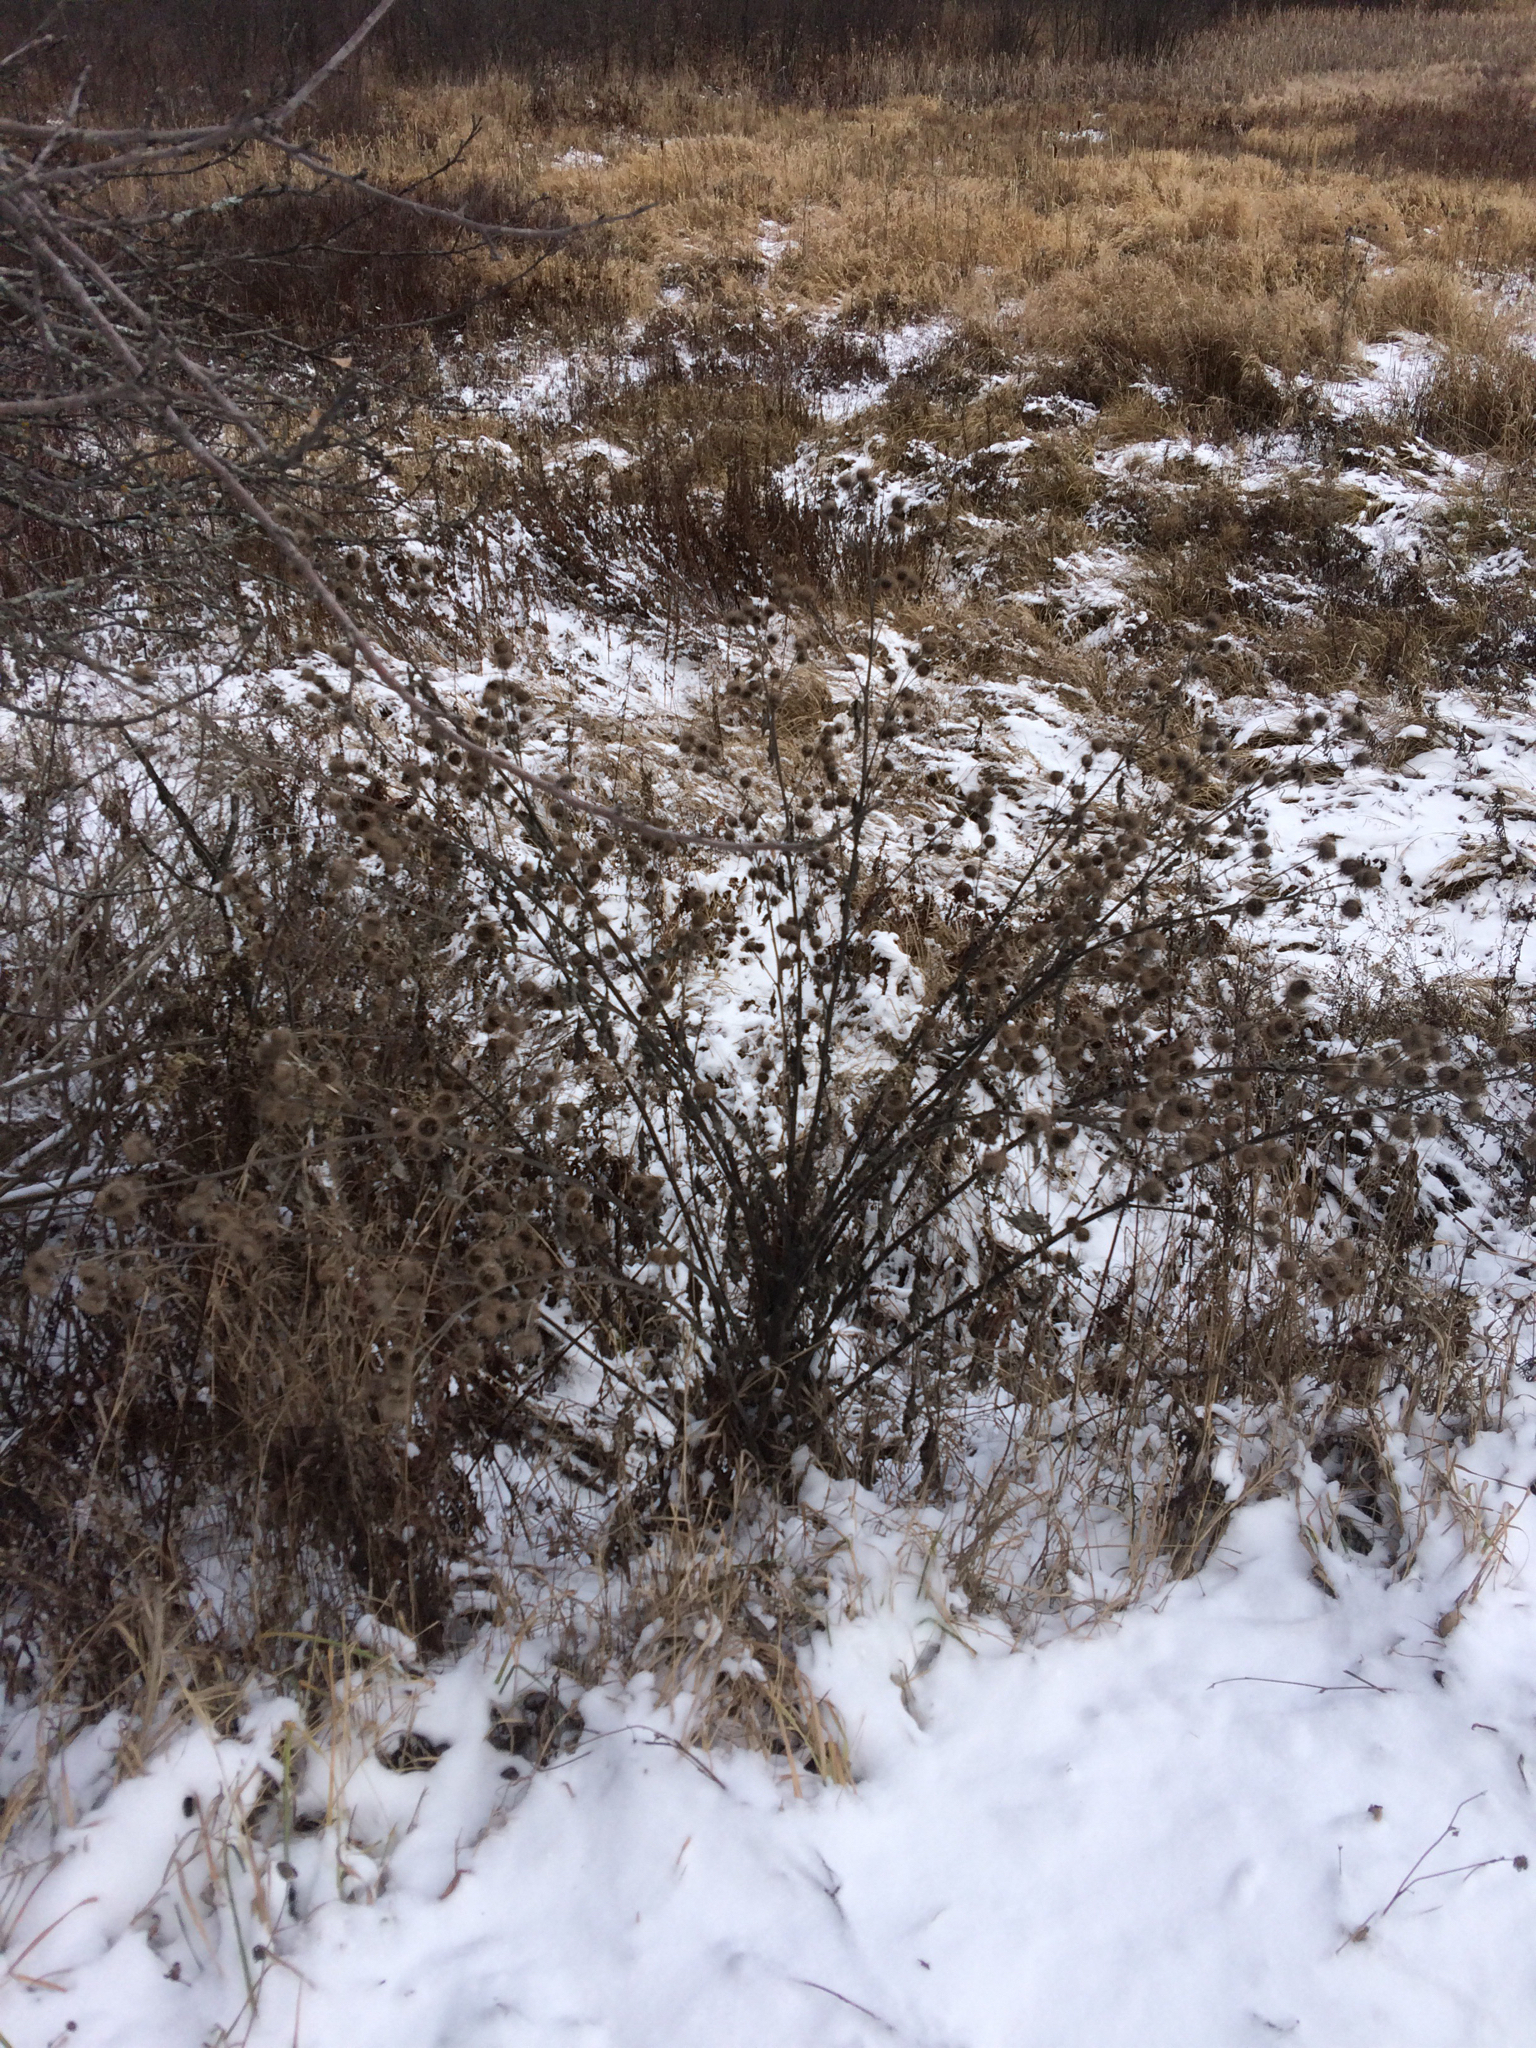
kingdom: Plantae
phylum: Tracheophyta
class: Magnoliopsida
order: Asterales
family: Asteraceae
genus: Arctium
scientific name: Arctium minus
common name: Lesser burdock
